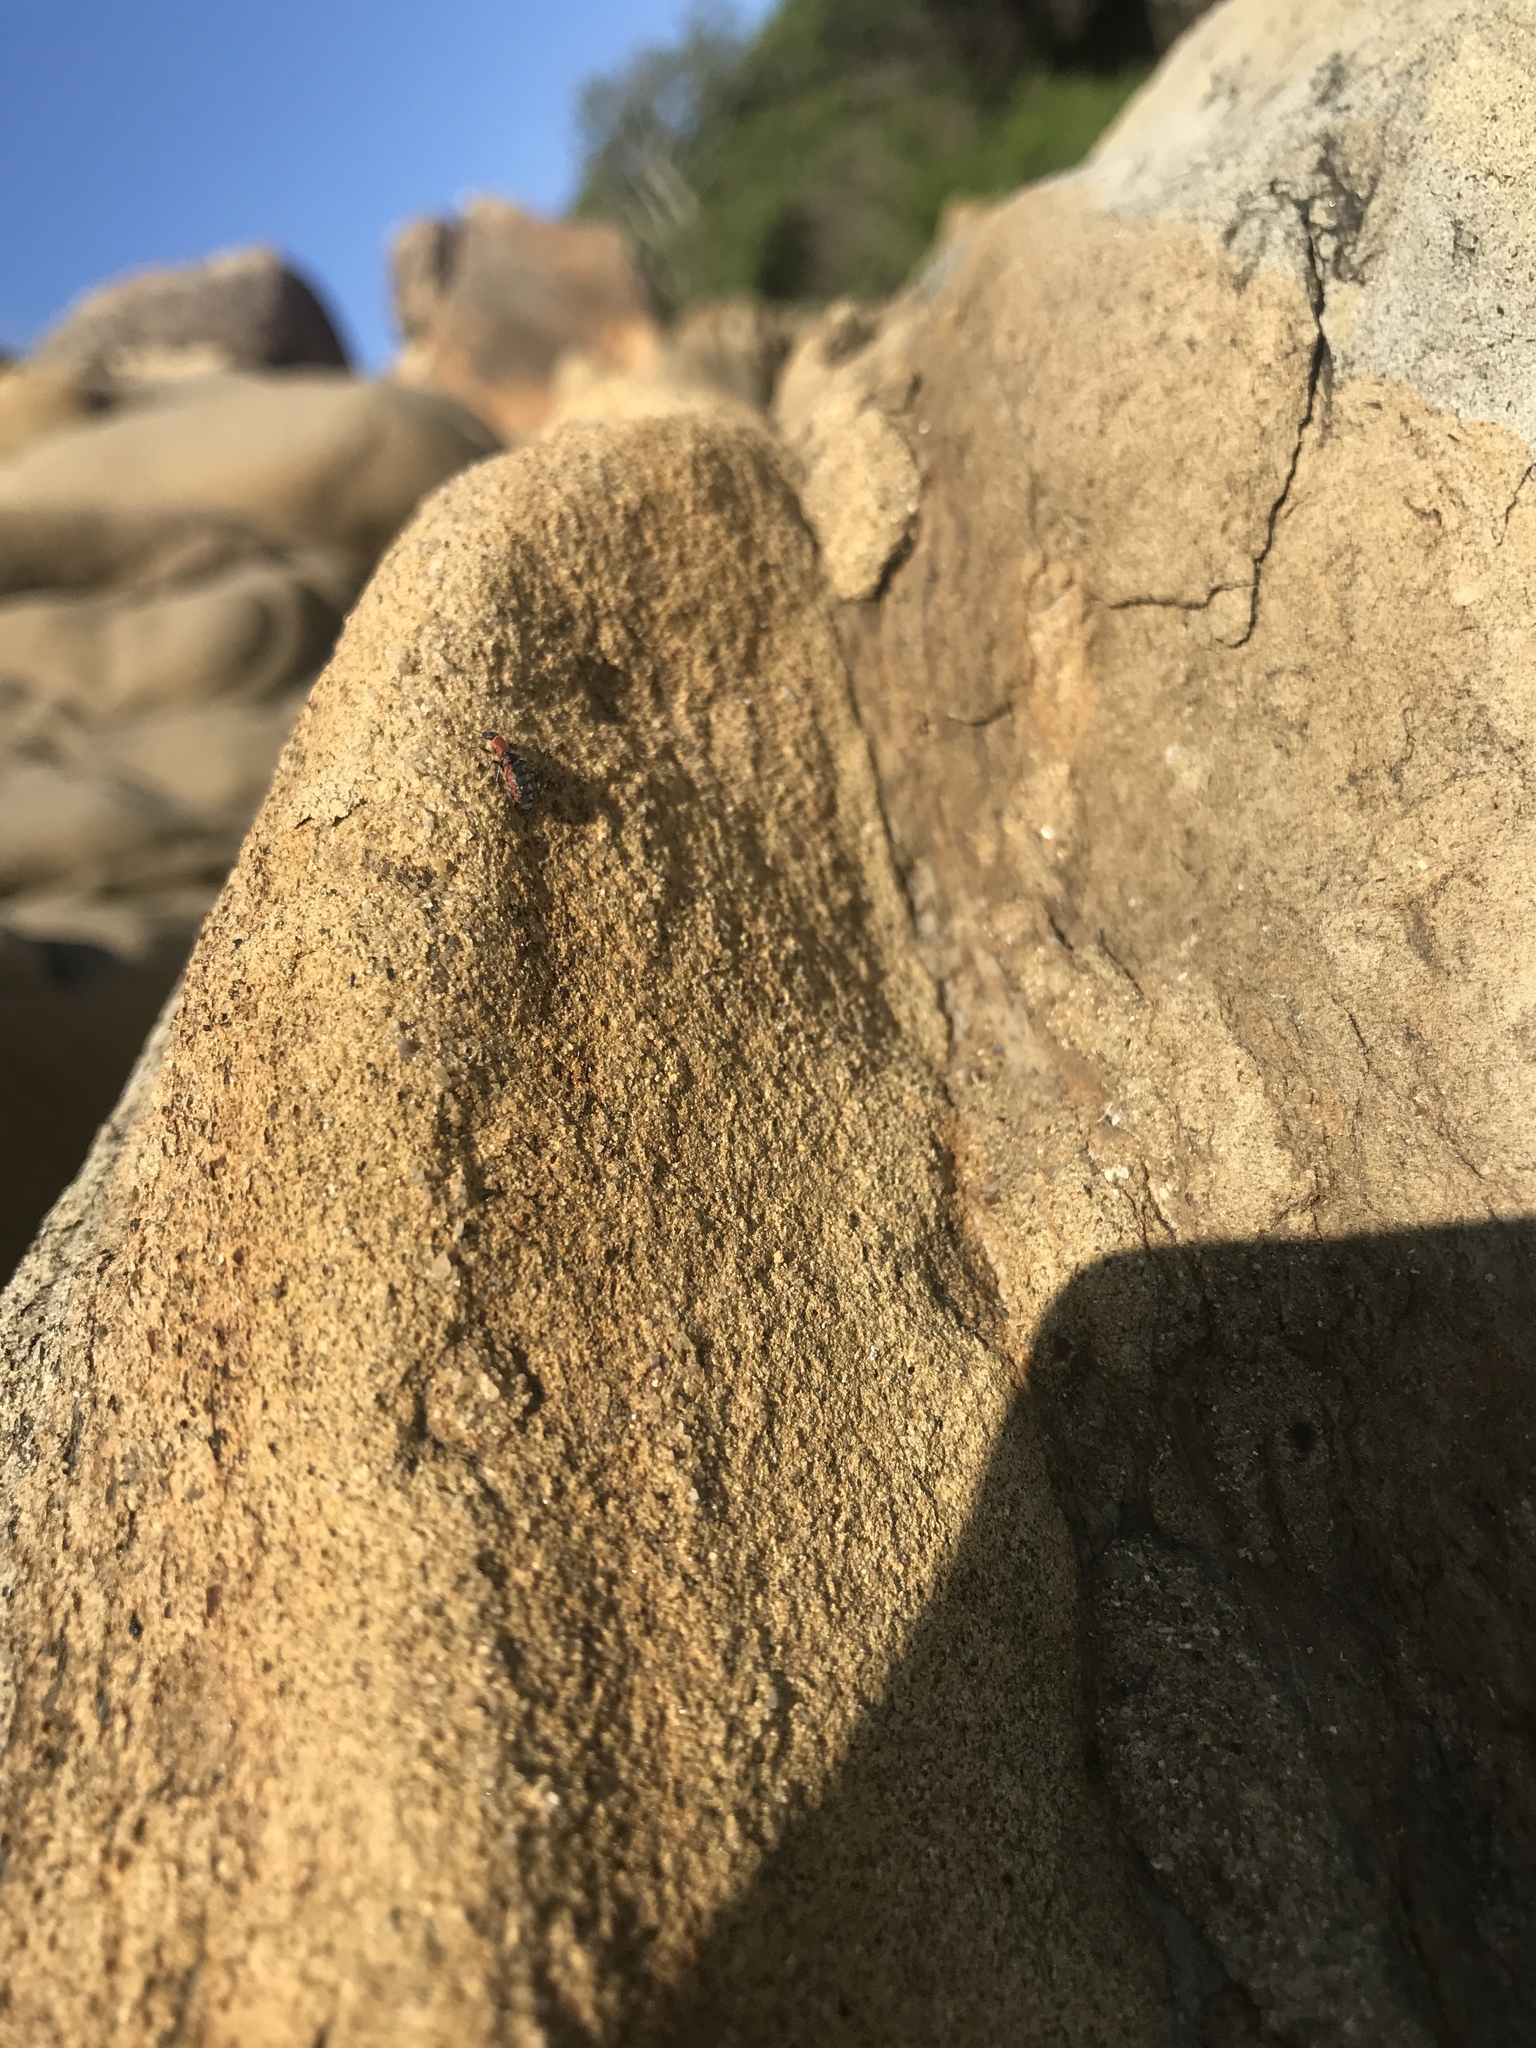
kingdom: Animalia
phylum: Arthropoda
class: Insecta
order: Coleoptera
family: Melyridae
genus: Endeodes
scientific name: Endeodes collaris
